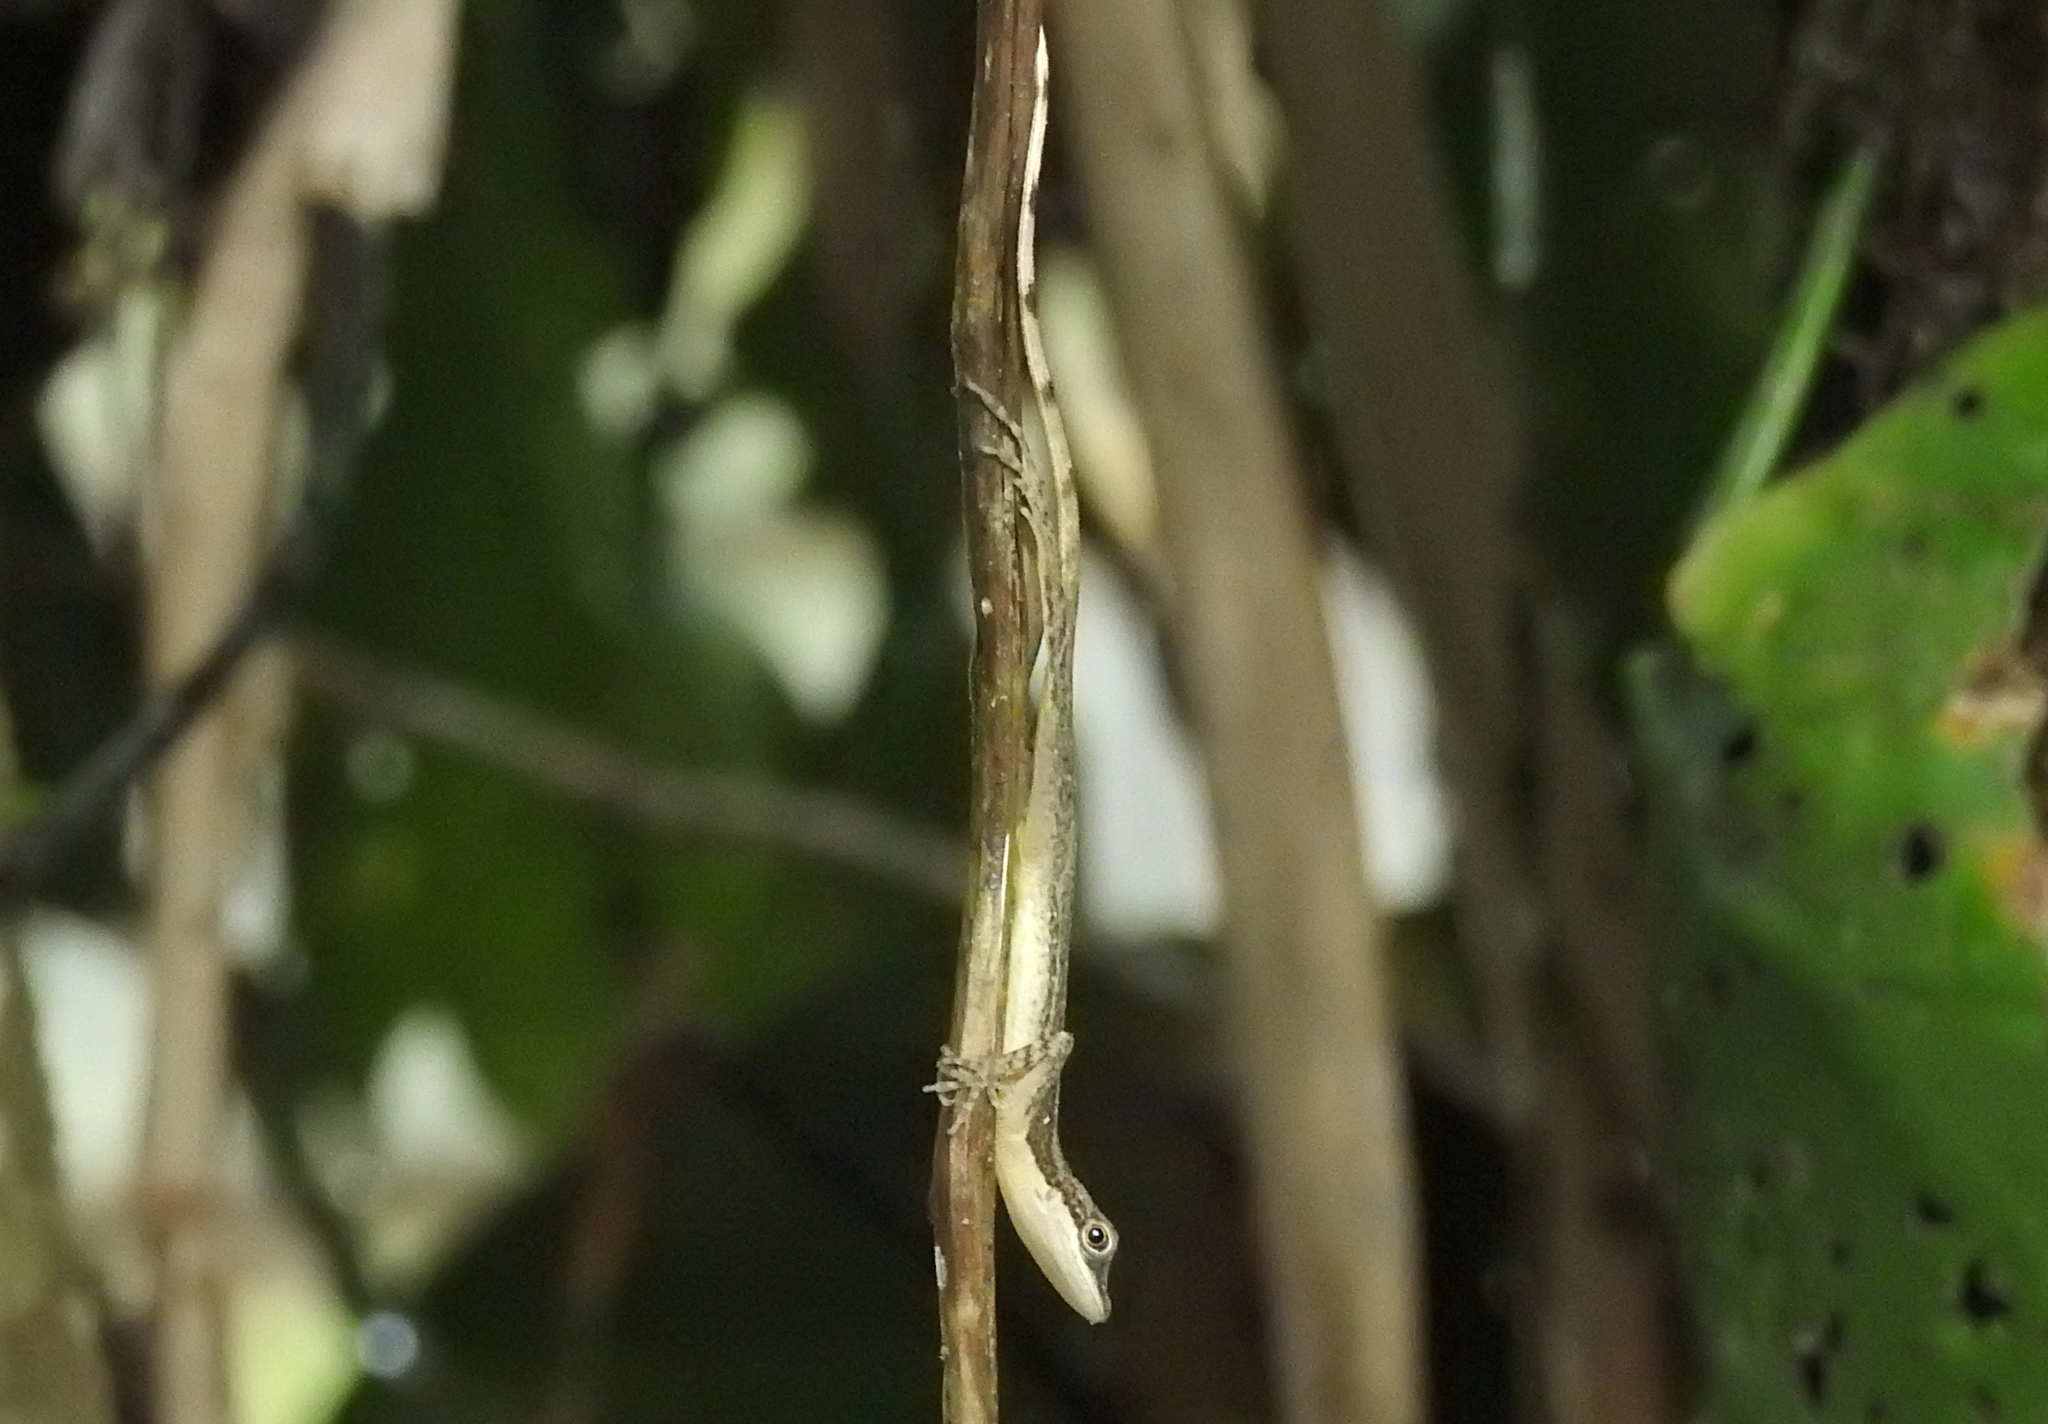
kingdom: Animalia
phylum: Chordata
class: Squamata
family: Dactyloidae
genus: Anolis
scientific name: Anolis limifrons
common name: Border anole
